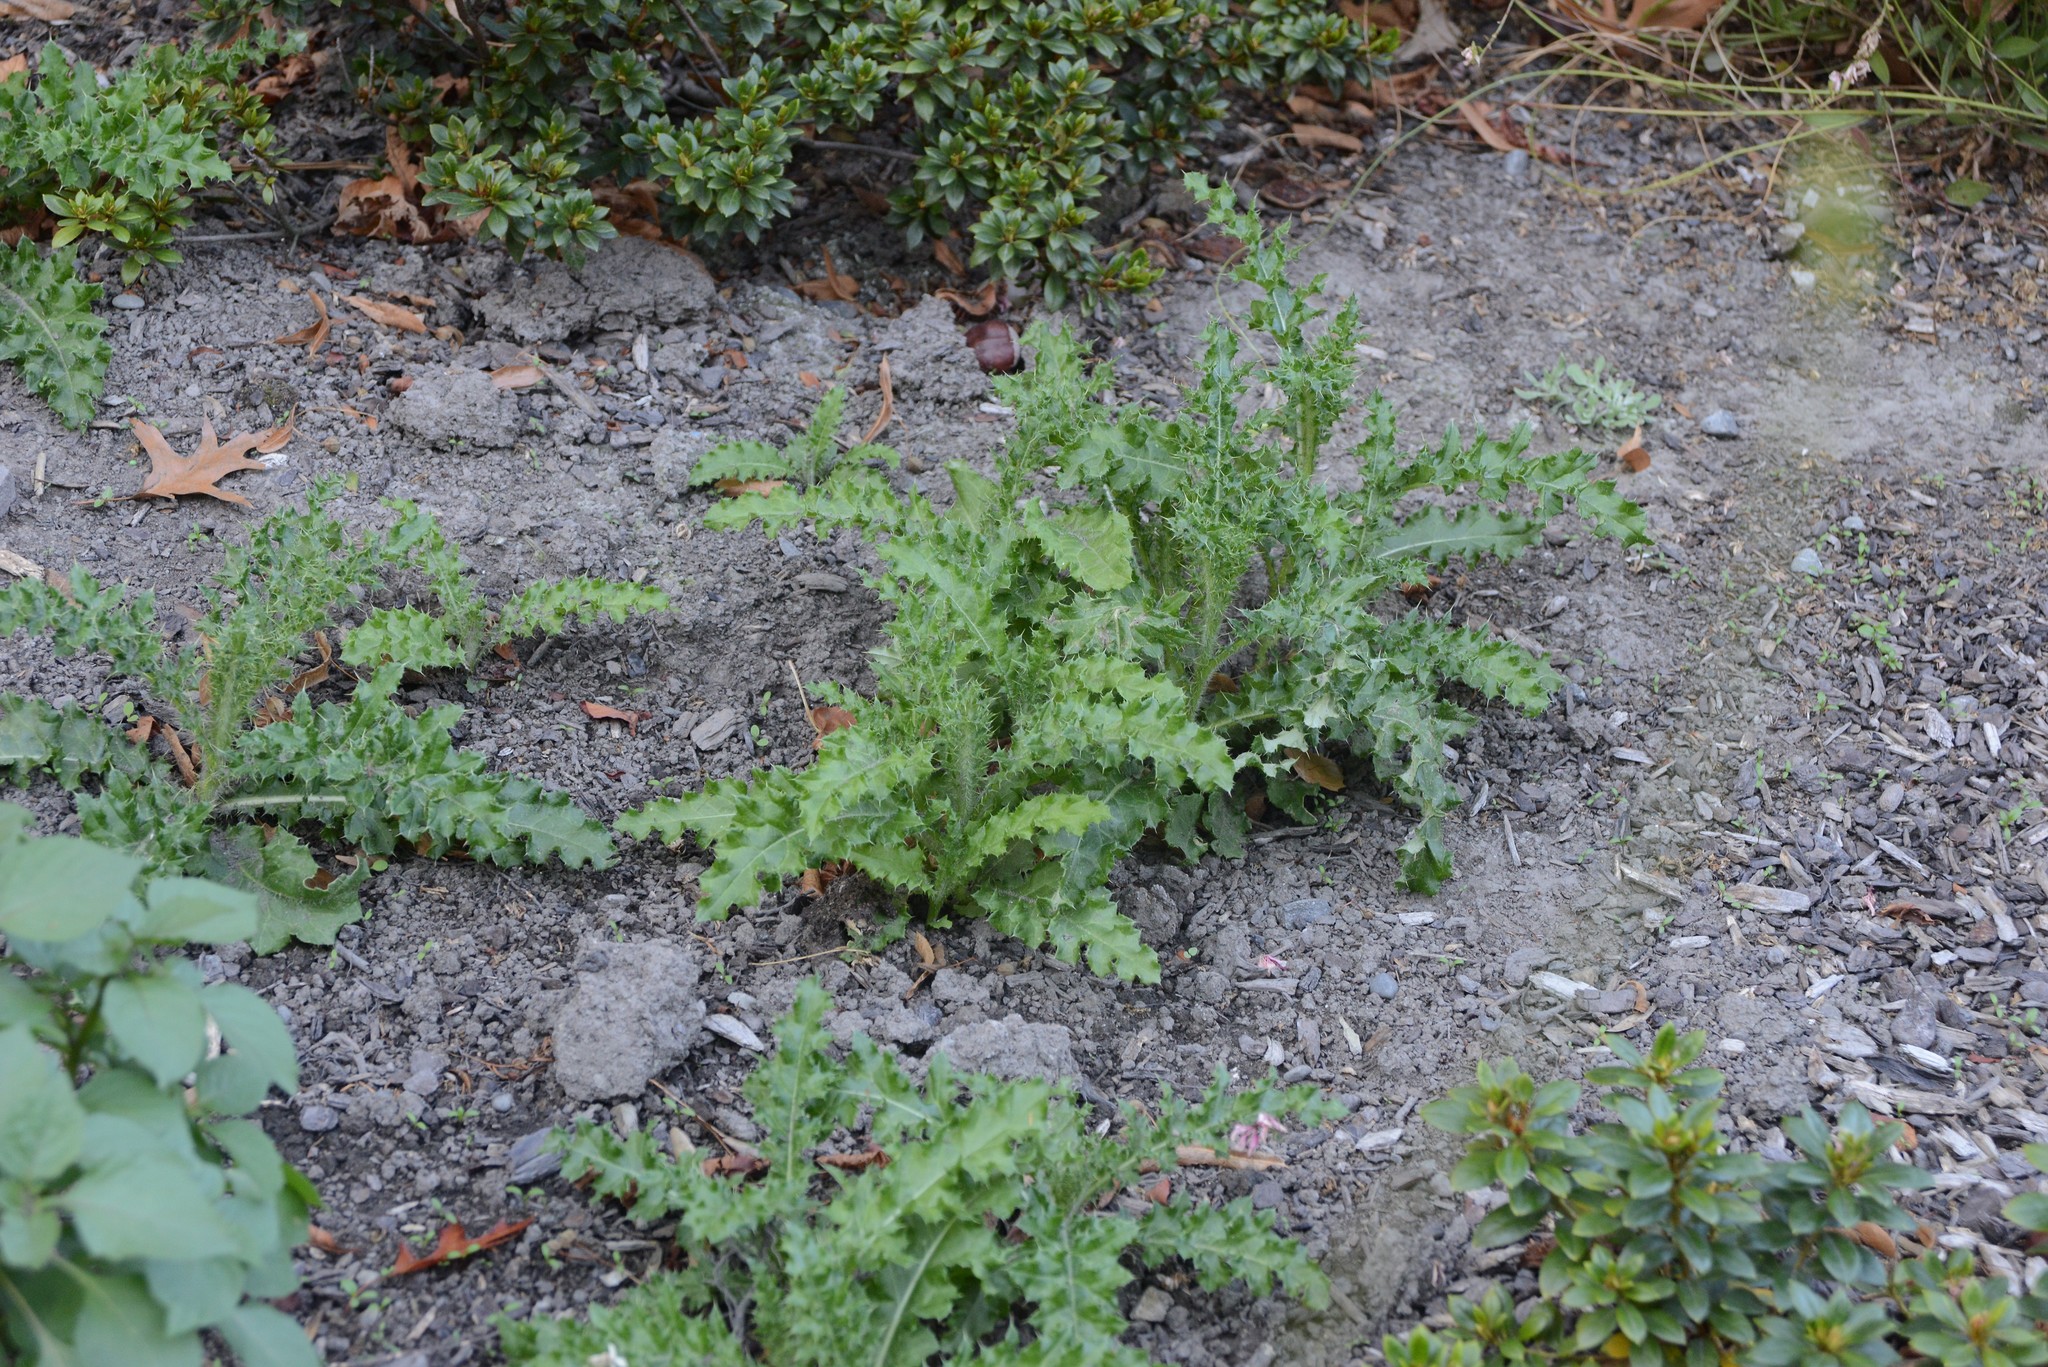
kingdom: Plantae
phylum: Tracheophyta
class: Magnoliopsida
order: Asterales
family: Asteraceae
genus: Cirsium
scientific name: Cirsium arvense
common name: Creeping thistle
